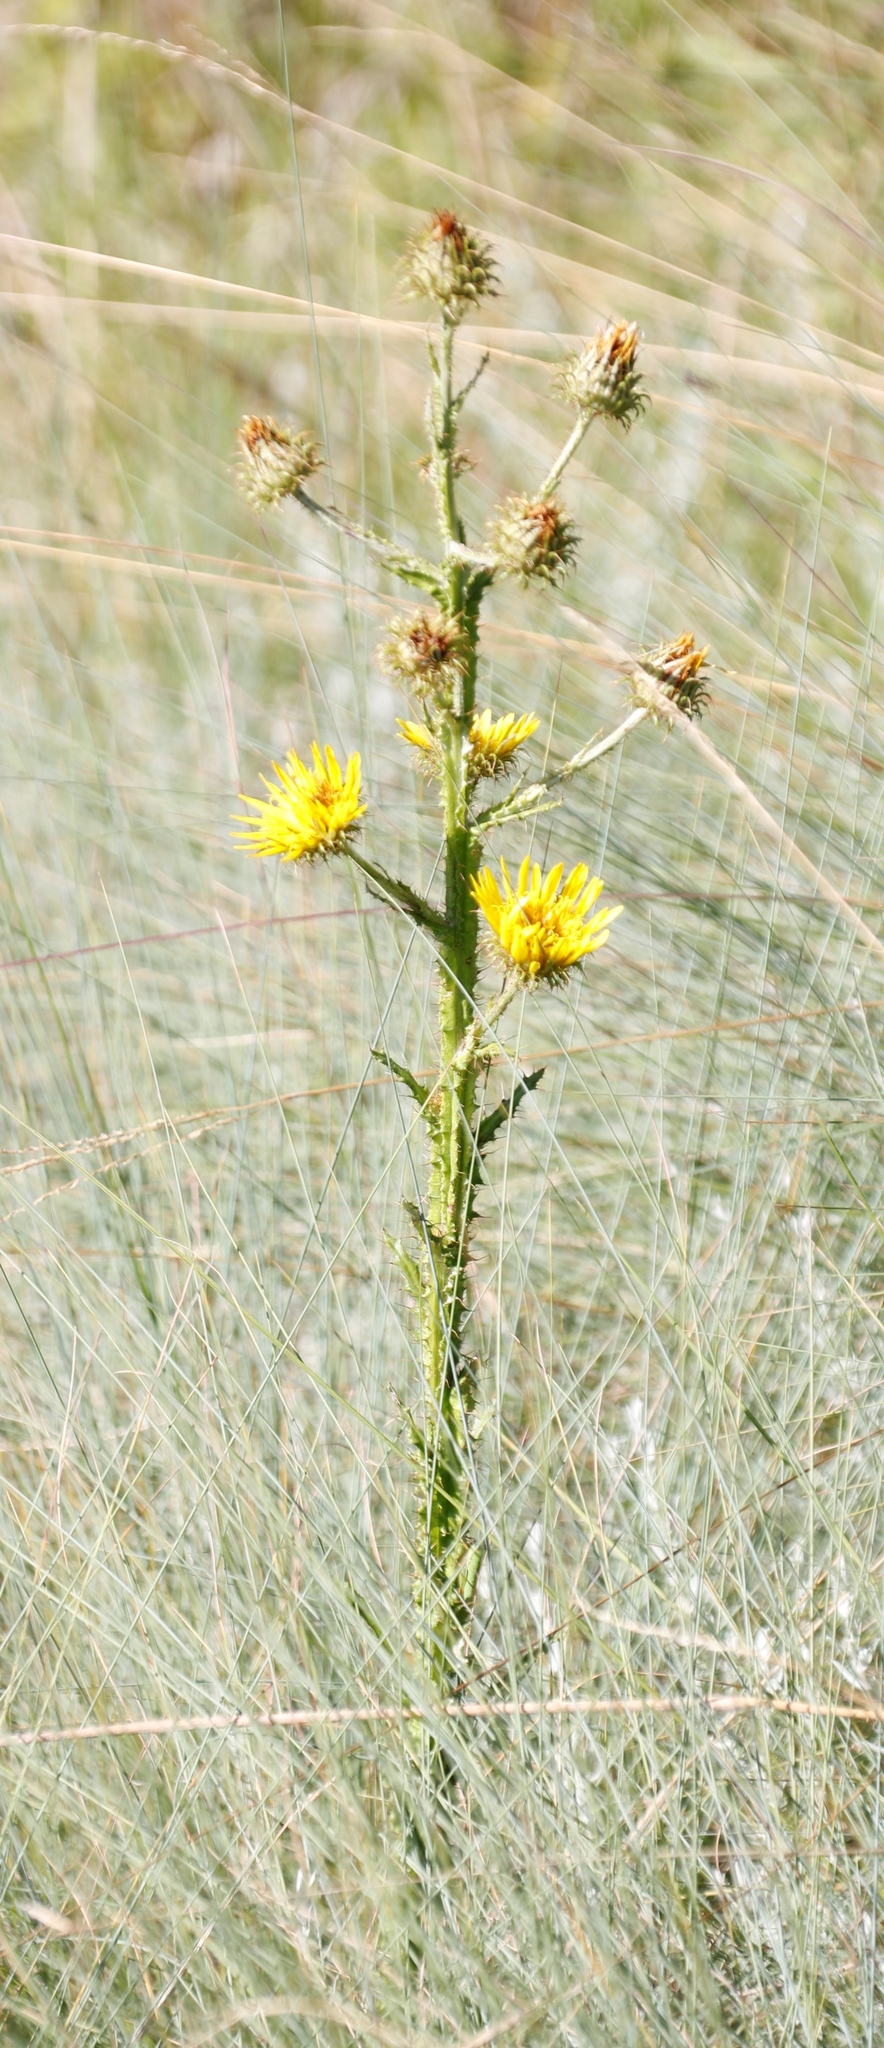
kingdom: Plantae
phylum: Tracheophyta
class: Magnoliopsida
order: Asterales
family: Asteraceae
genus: Berkheya
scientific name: Berkheya rhapontica
